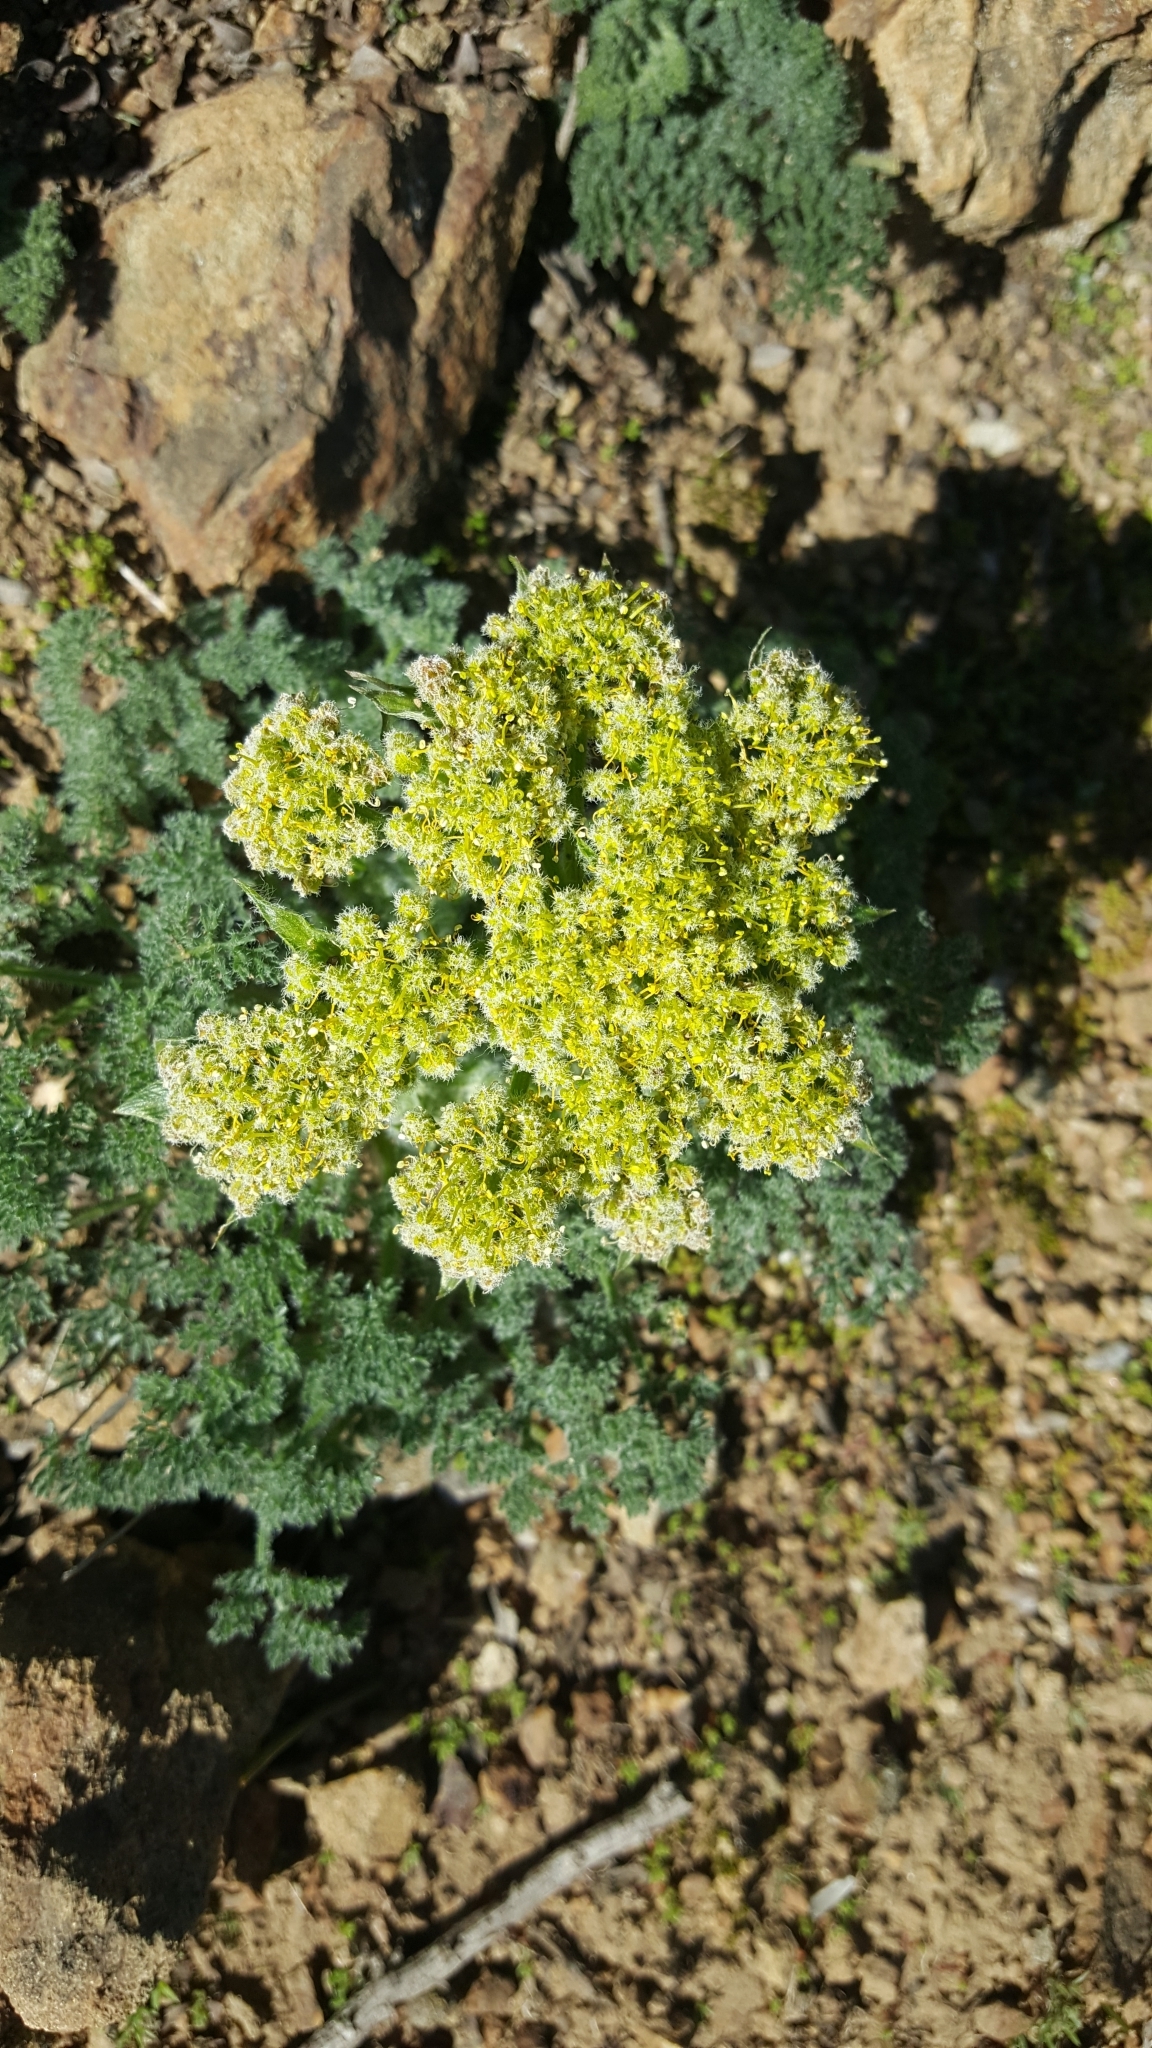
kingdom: Plantae
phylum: Tracheophyta
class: Magnoliopsida
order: Apiales
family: Apiaceae
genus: Lomatium
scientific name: Lomatium dasycarpum
